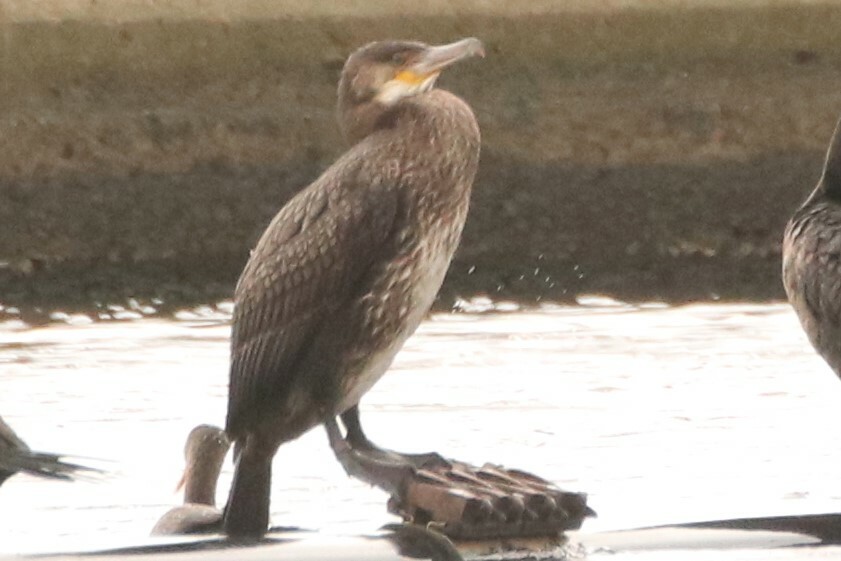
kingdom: Animalia
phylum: Chordata
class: Aves
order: Suliformes
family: Phalacrocoracidae
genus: Phalacrocorax
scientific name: Phalacrocorax carbo
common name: Great cormorant
